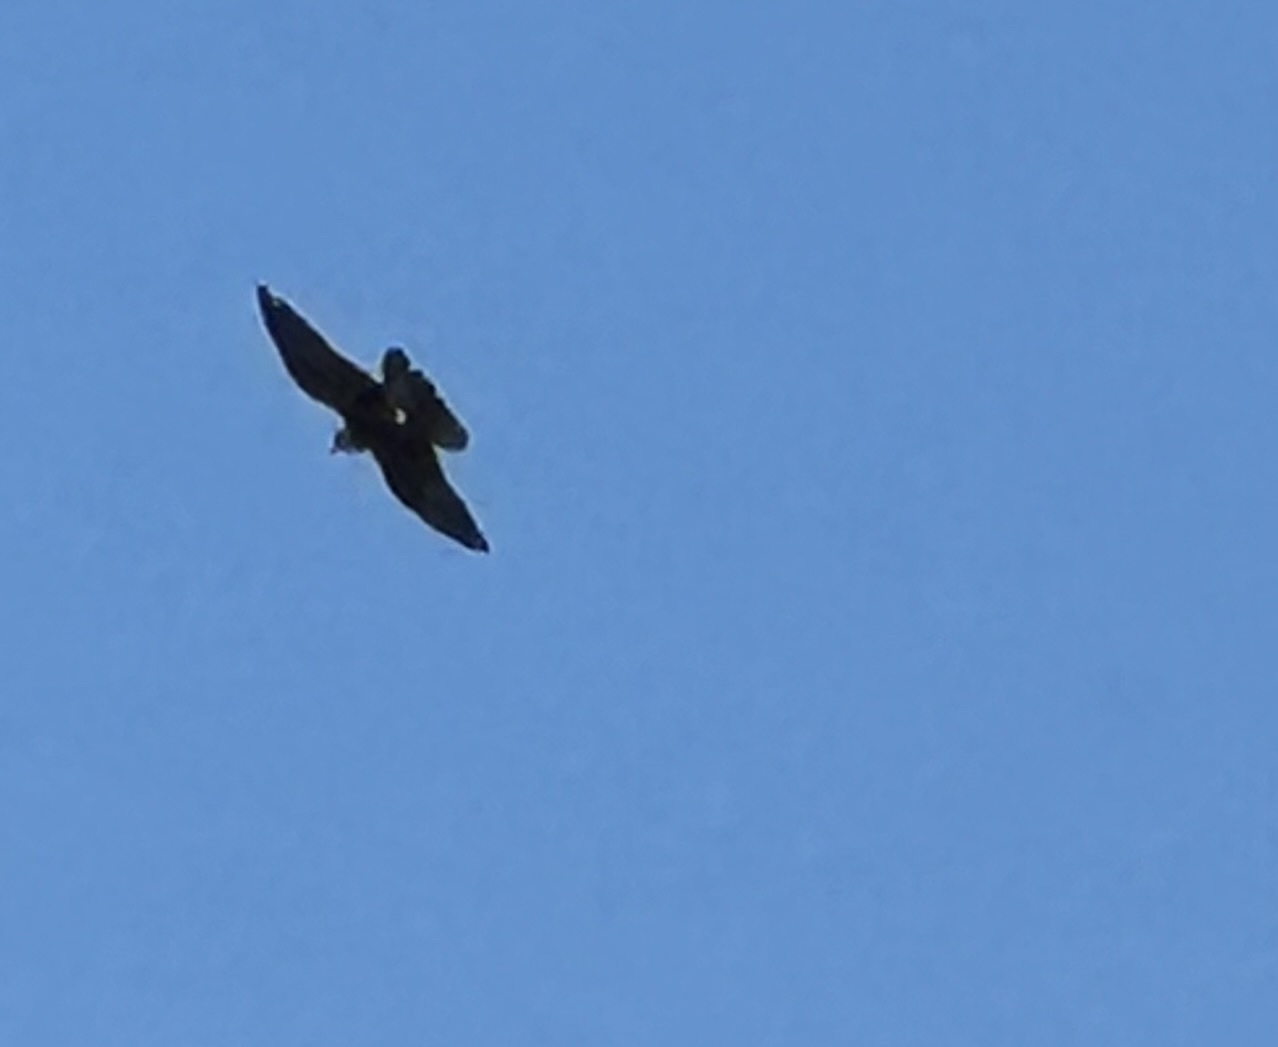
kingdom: Animalia
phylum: Chordata
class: Aves
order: Falconiformes
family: Falconidae
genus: Falco
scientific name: Falco peregrinus
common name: Peregrine falcon
